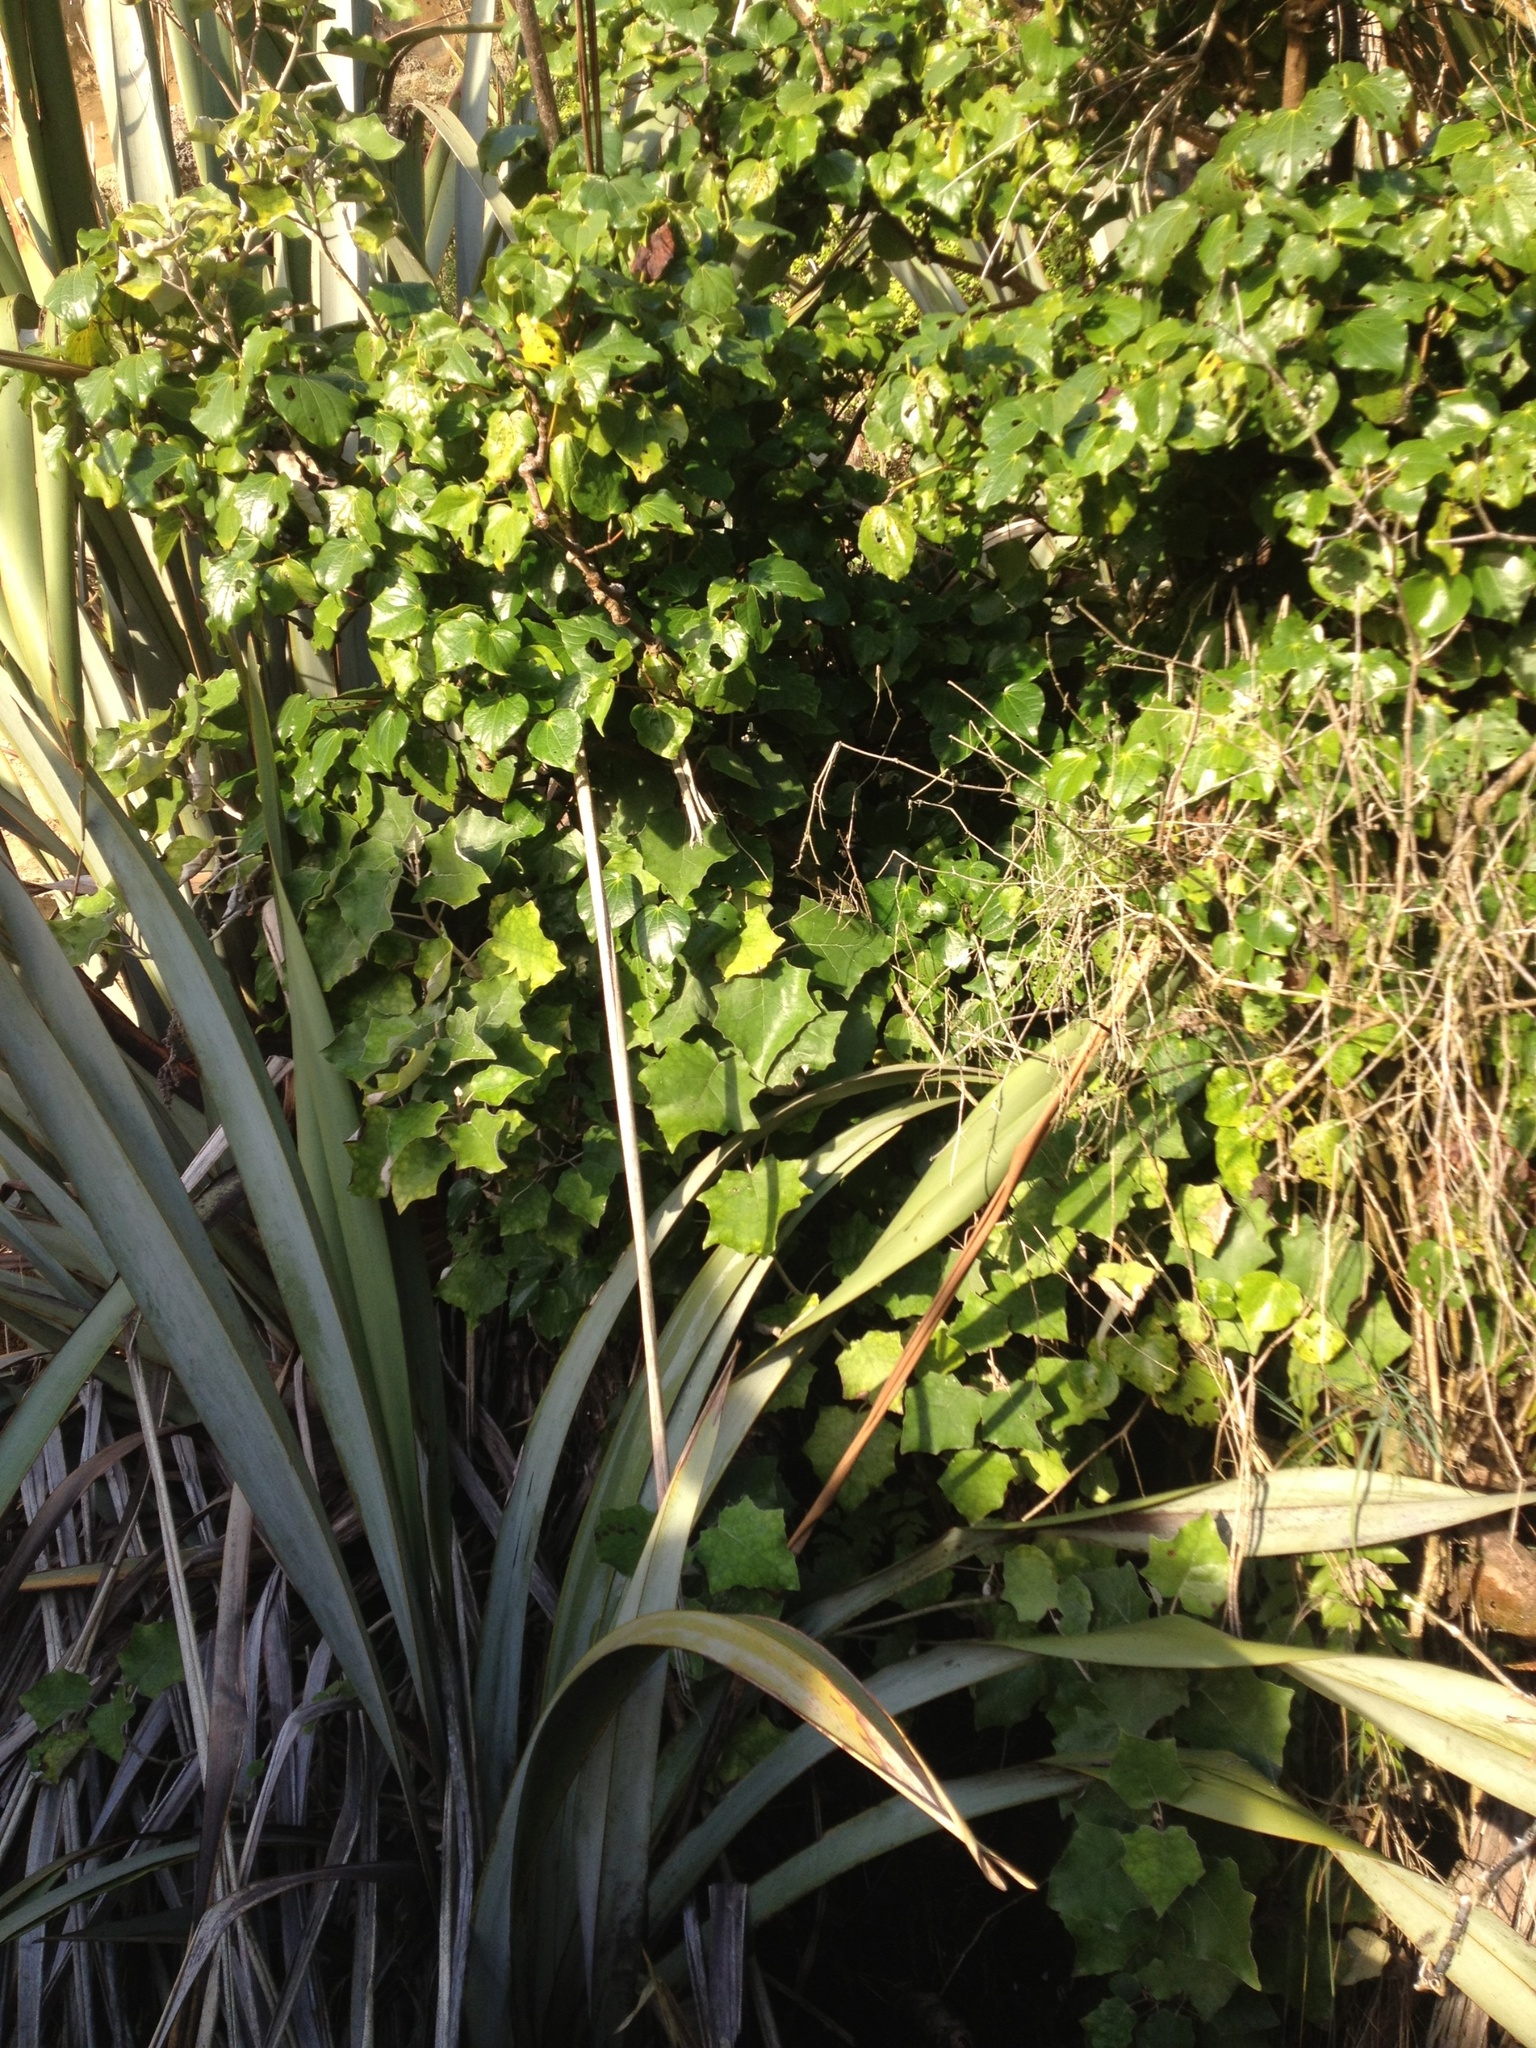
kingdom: Plantae
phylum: Tracheophyta
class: Magnoliopsida
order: Asterales
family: Asteraceae
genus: Brachyglottis
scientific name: Brachyglottis repanda
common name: Hedge ragwort
